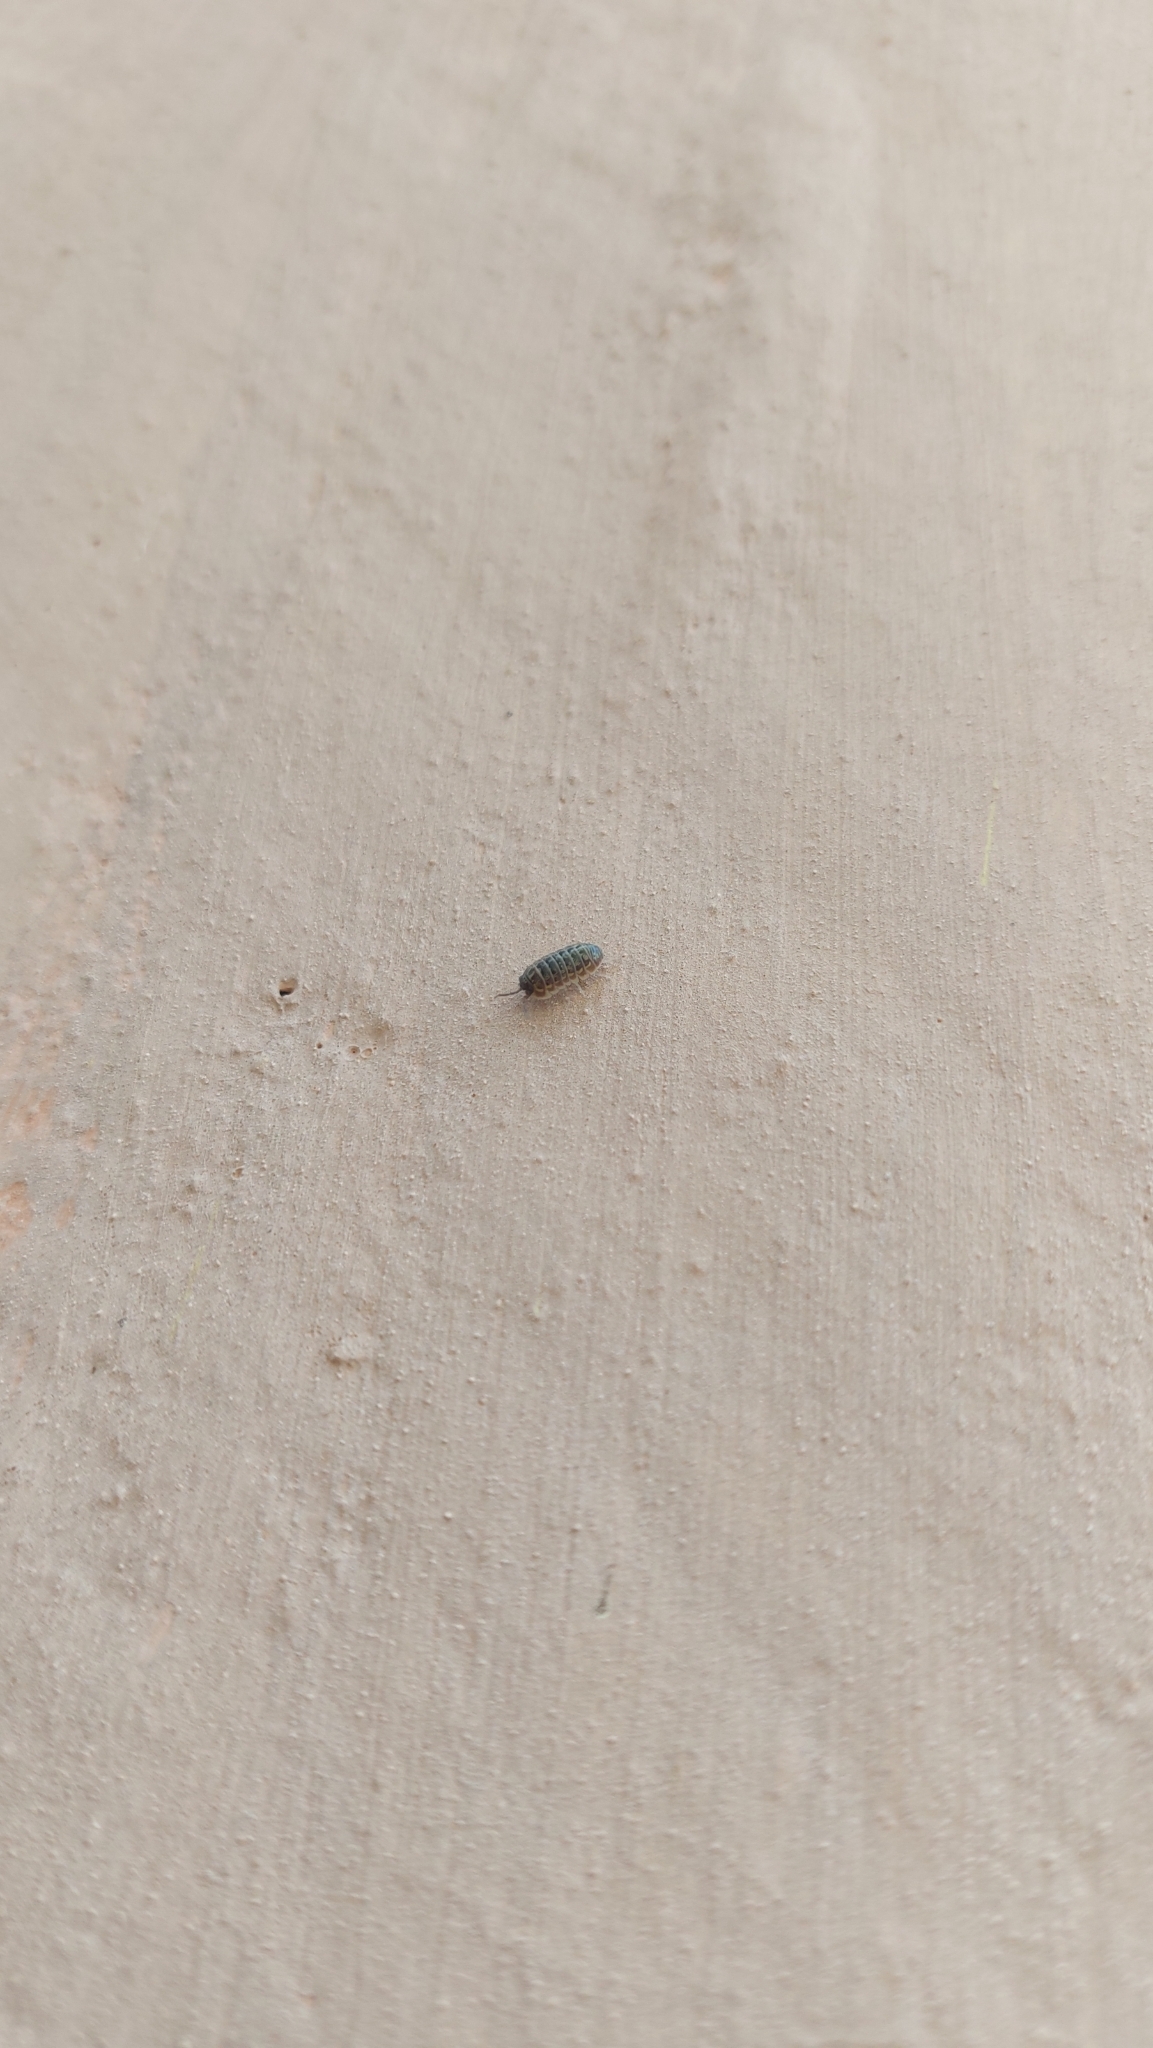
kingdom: Animalia
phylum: Arthropoda
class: Malacostraca
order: Isopoda
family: Armadillidiidae
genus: Armadillidium
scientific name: Armadillidium versicolor
